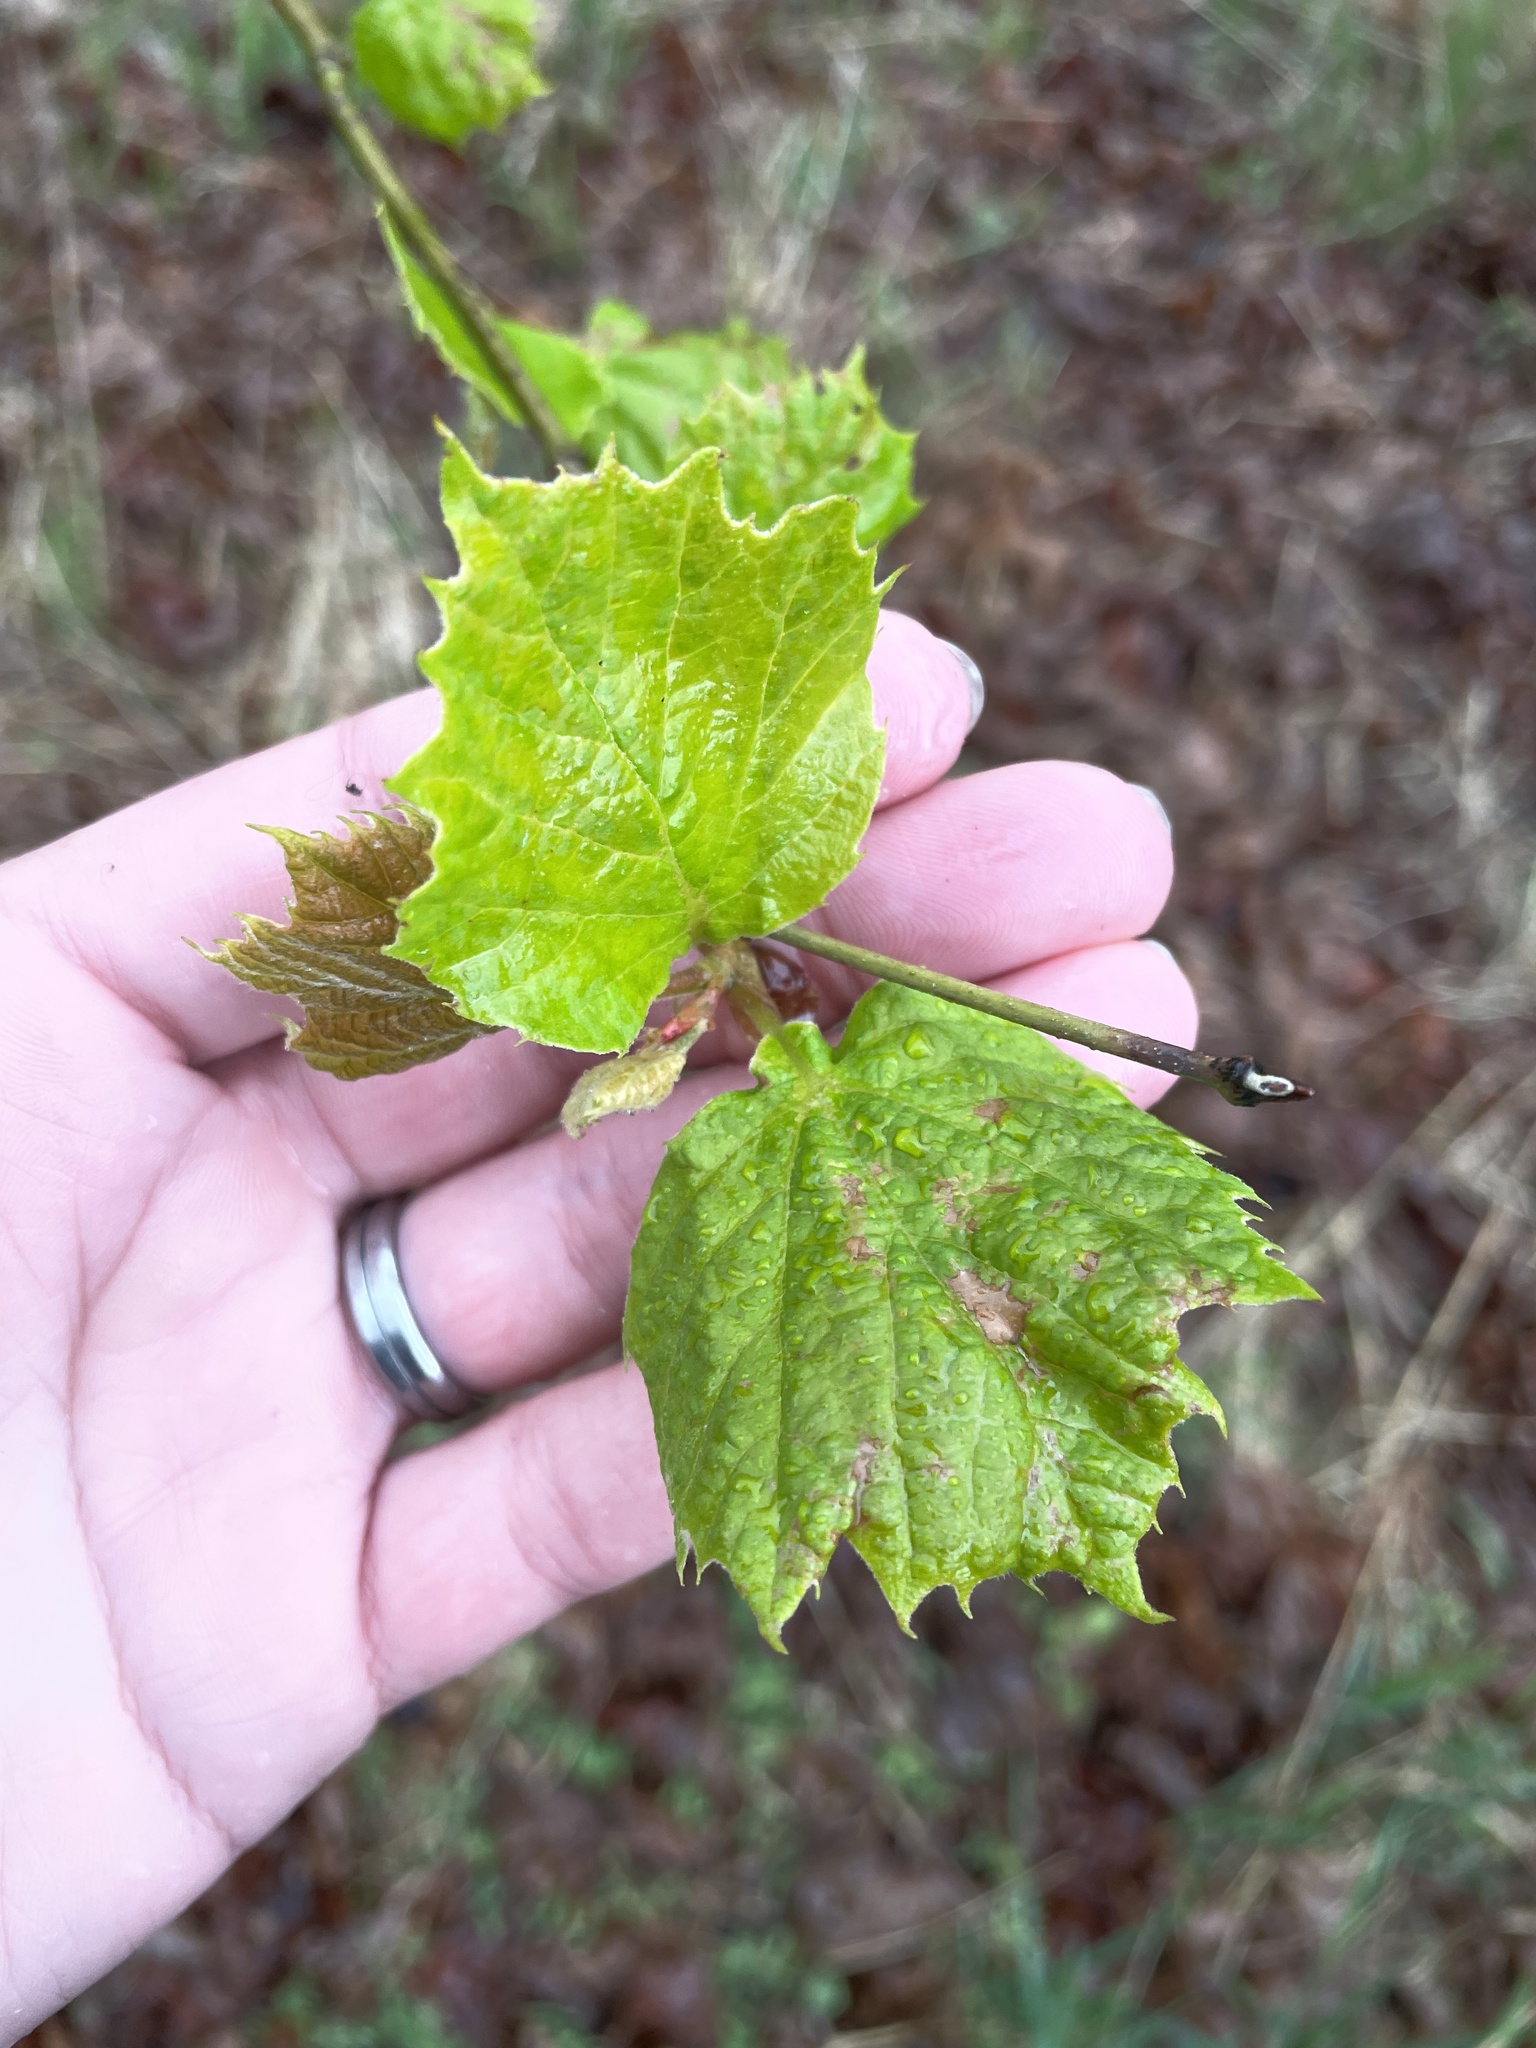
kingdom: Plantae
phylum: Tracheophyta
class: Magnoliopsida
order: Proteales
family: Platanaceae
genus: Platanus
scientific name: Platanus occidentalis
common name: American sycamore
